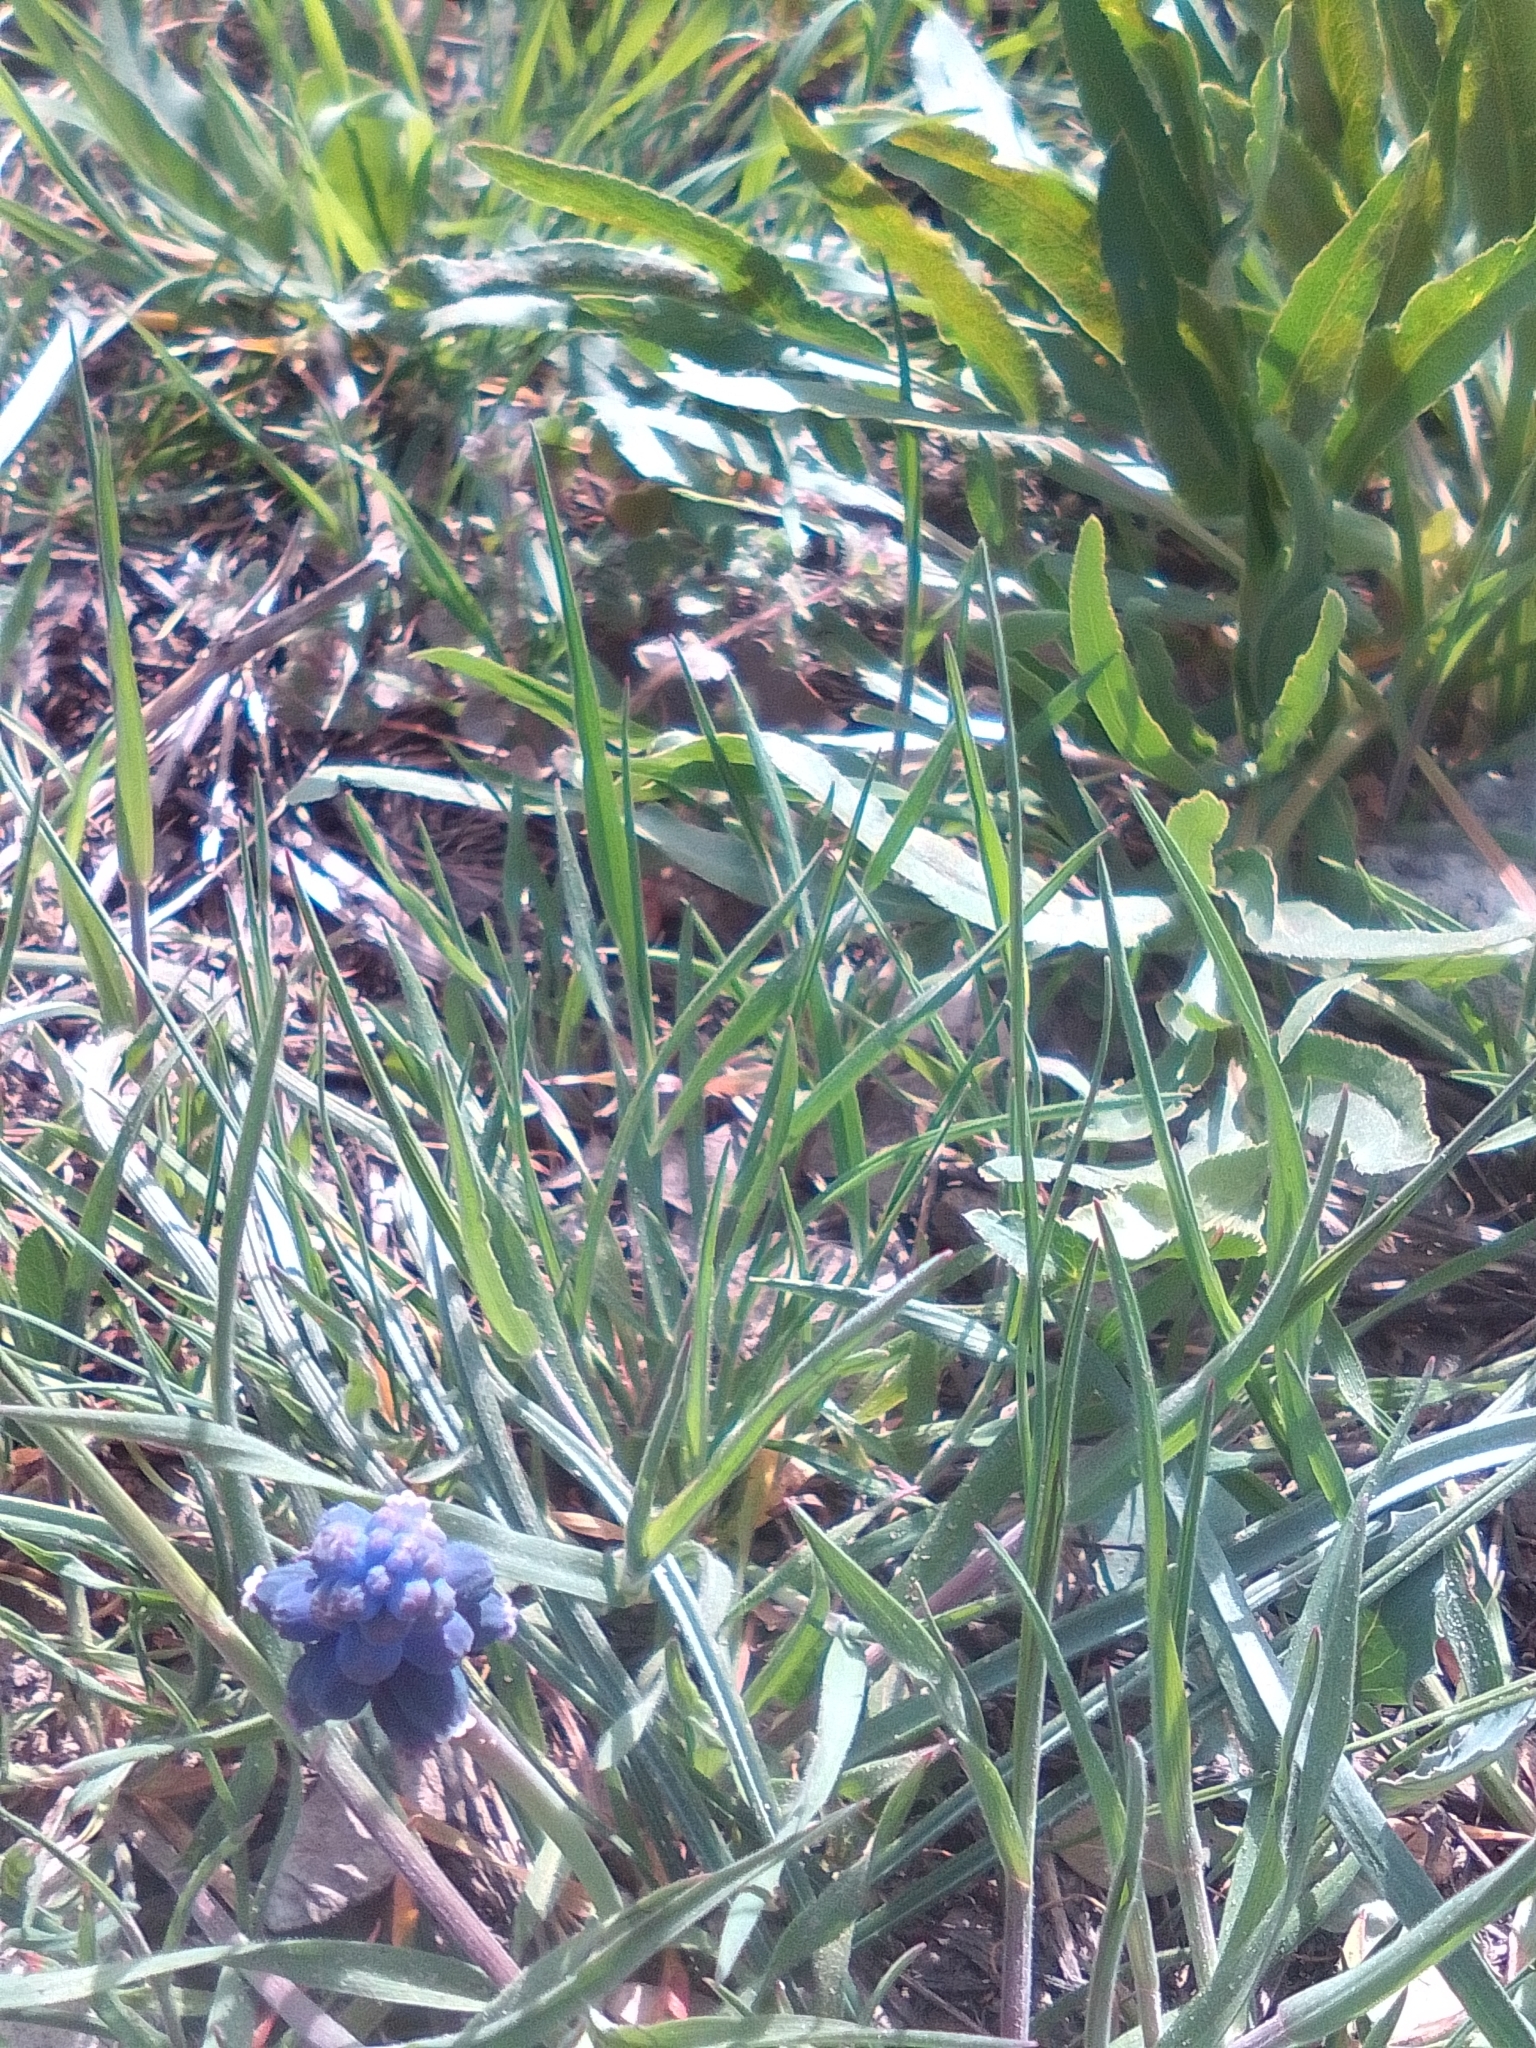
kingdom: Plantae
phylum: Tracheophyta
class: Liliopsida
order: Asparagales
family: Asparagaceae
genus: Muscari
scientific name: Muscari neglectum
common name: Grape-hyacinth
